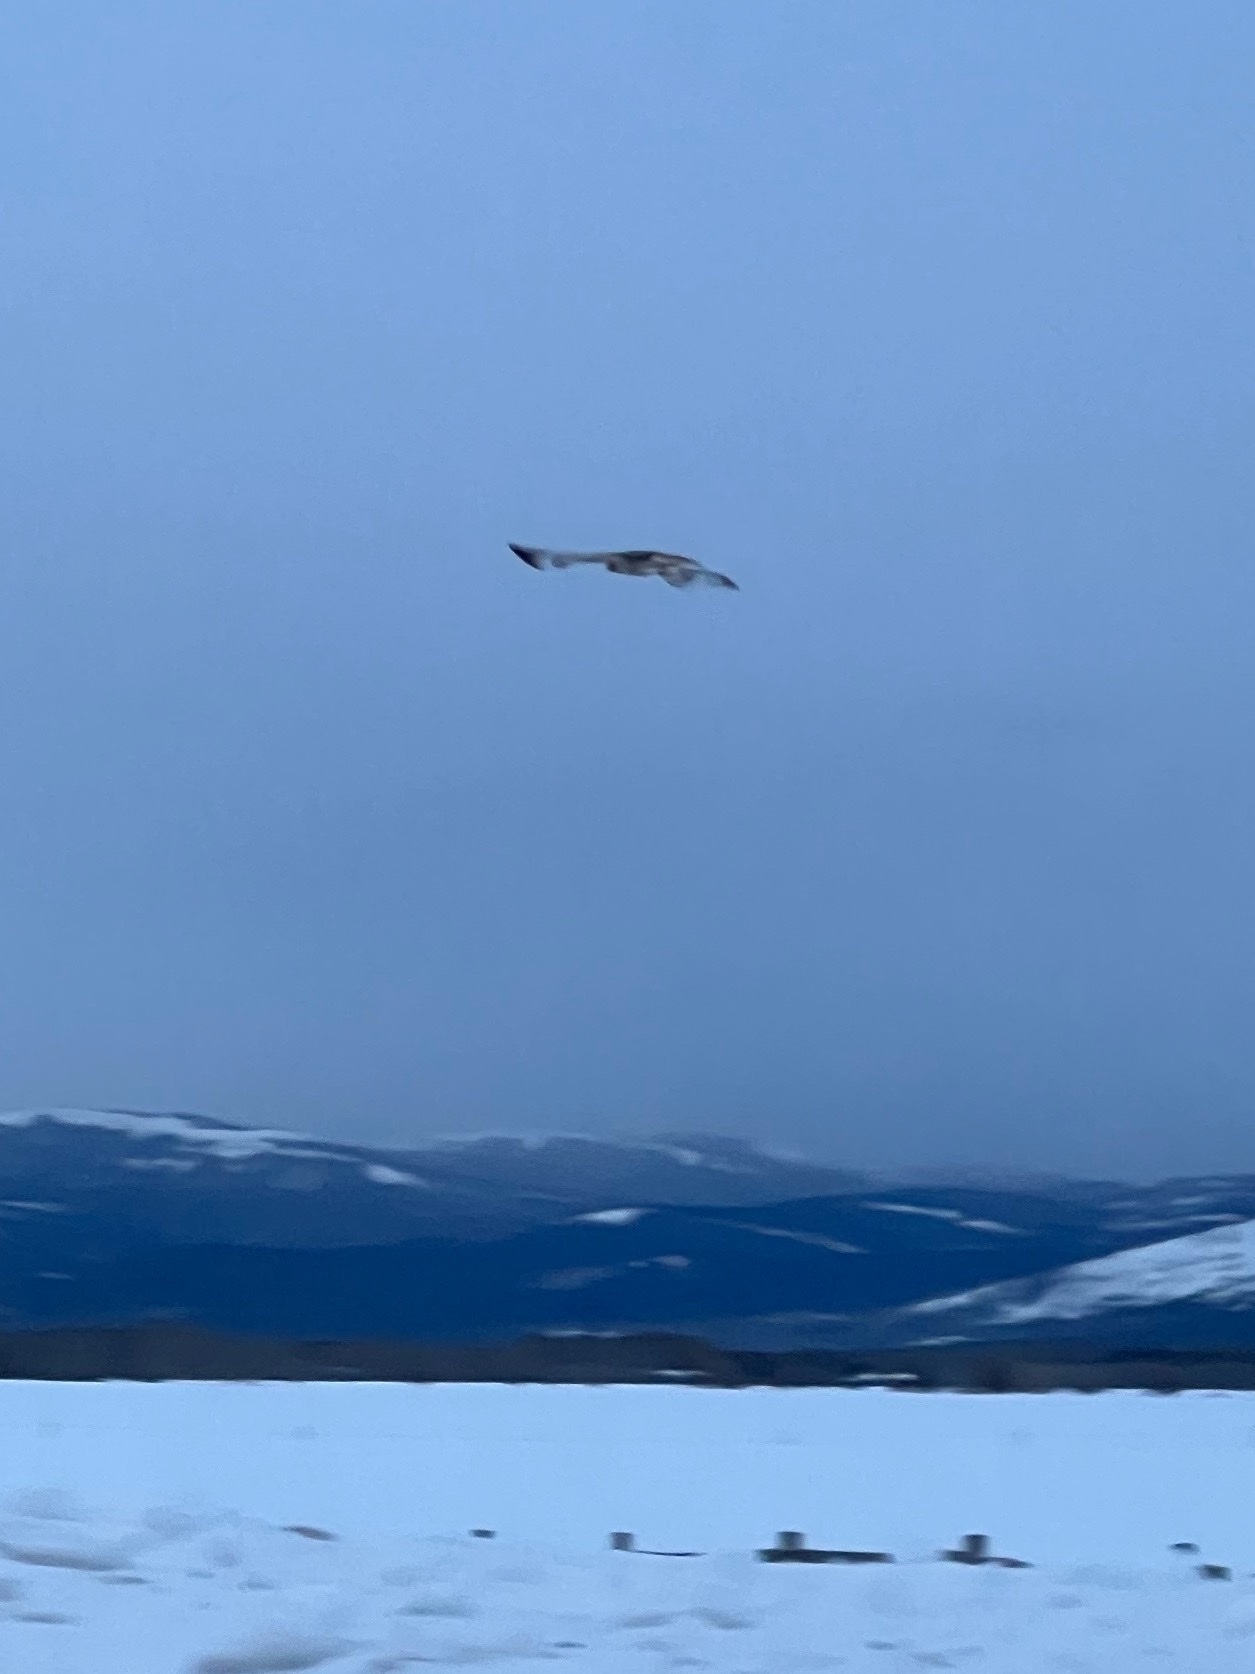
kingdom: Animalia
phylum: Chordata
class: Aves
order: Accipitriformes
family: Accipitridae
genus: Buteo
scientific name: Buteo jamaicensis
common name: Red-tailed hawk
